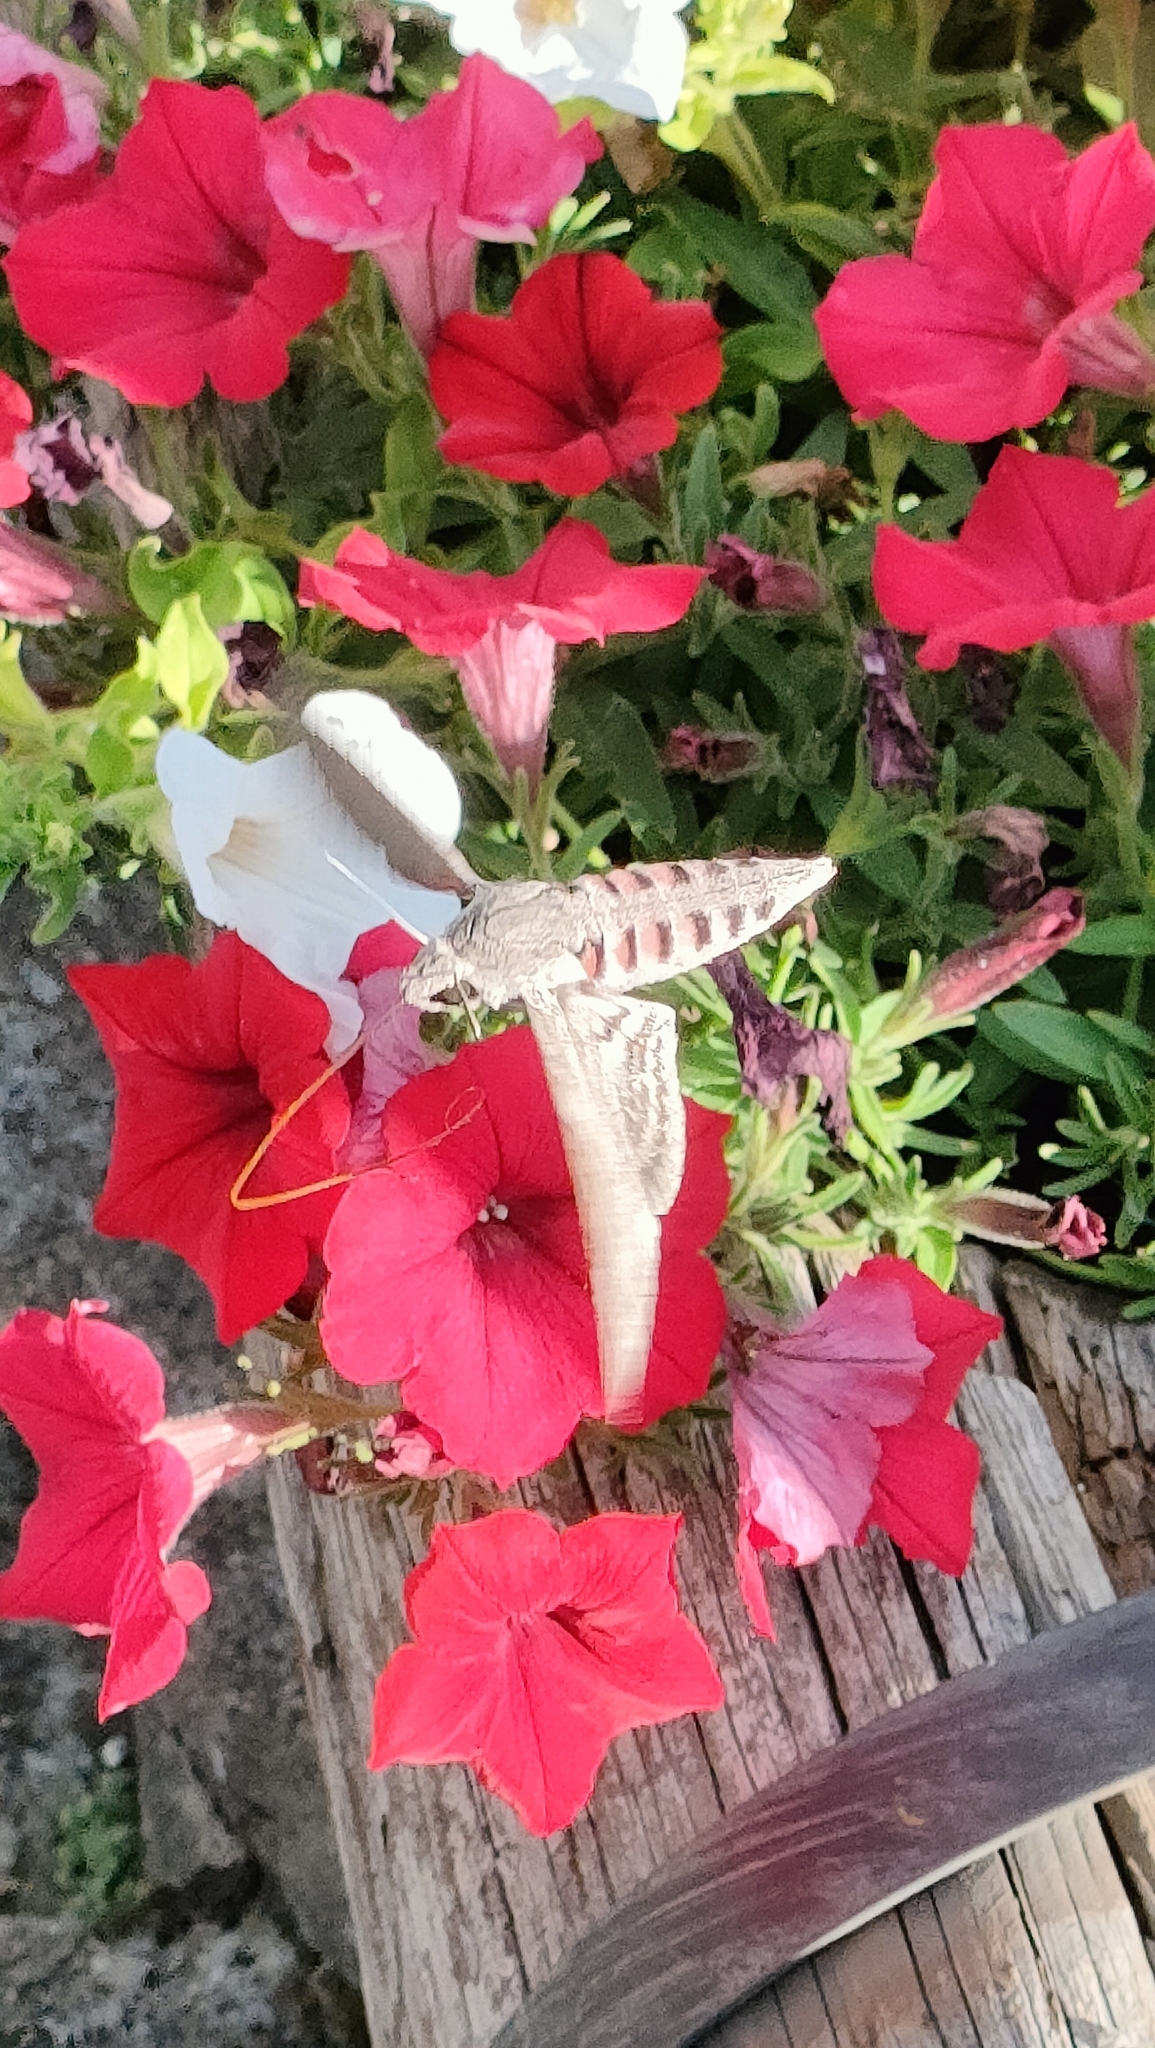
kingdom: Animalia
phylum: Arthropoda
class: Insecta
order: Lepidoptera
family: Sphingidae
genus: Agrius
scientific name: Agrius convolvuli
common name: Convolvulus hawkmoth
